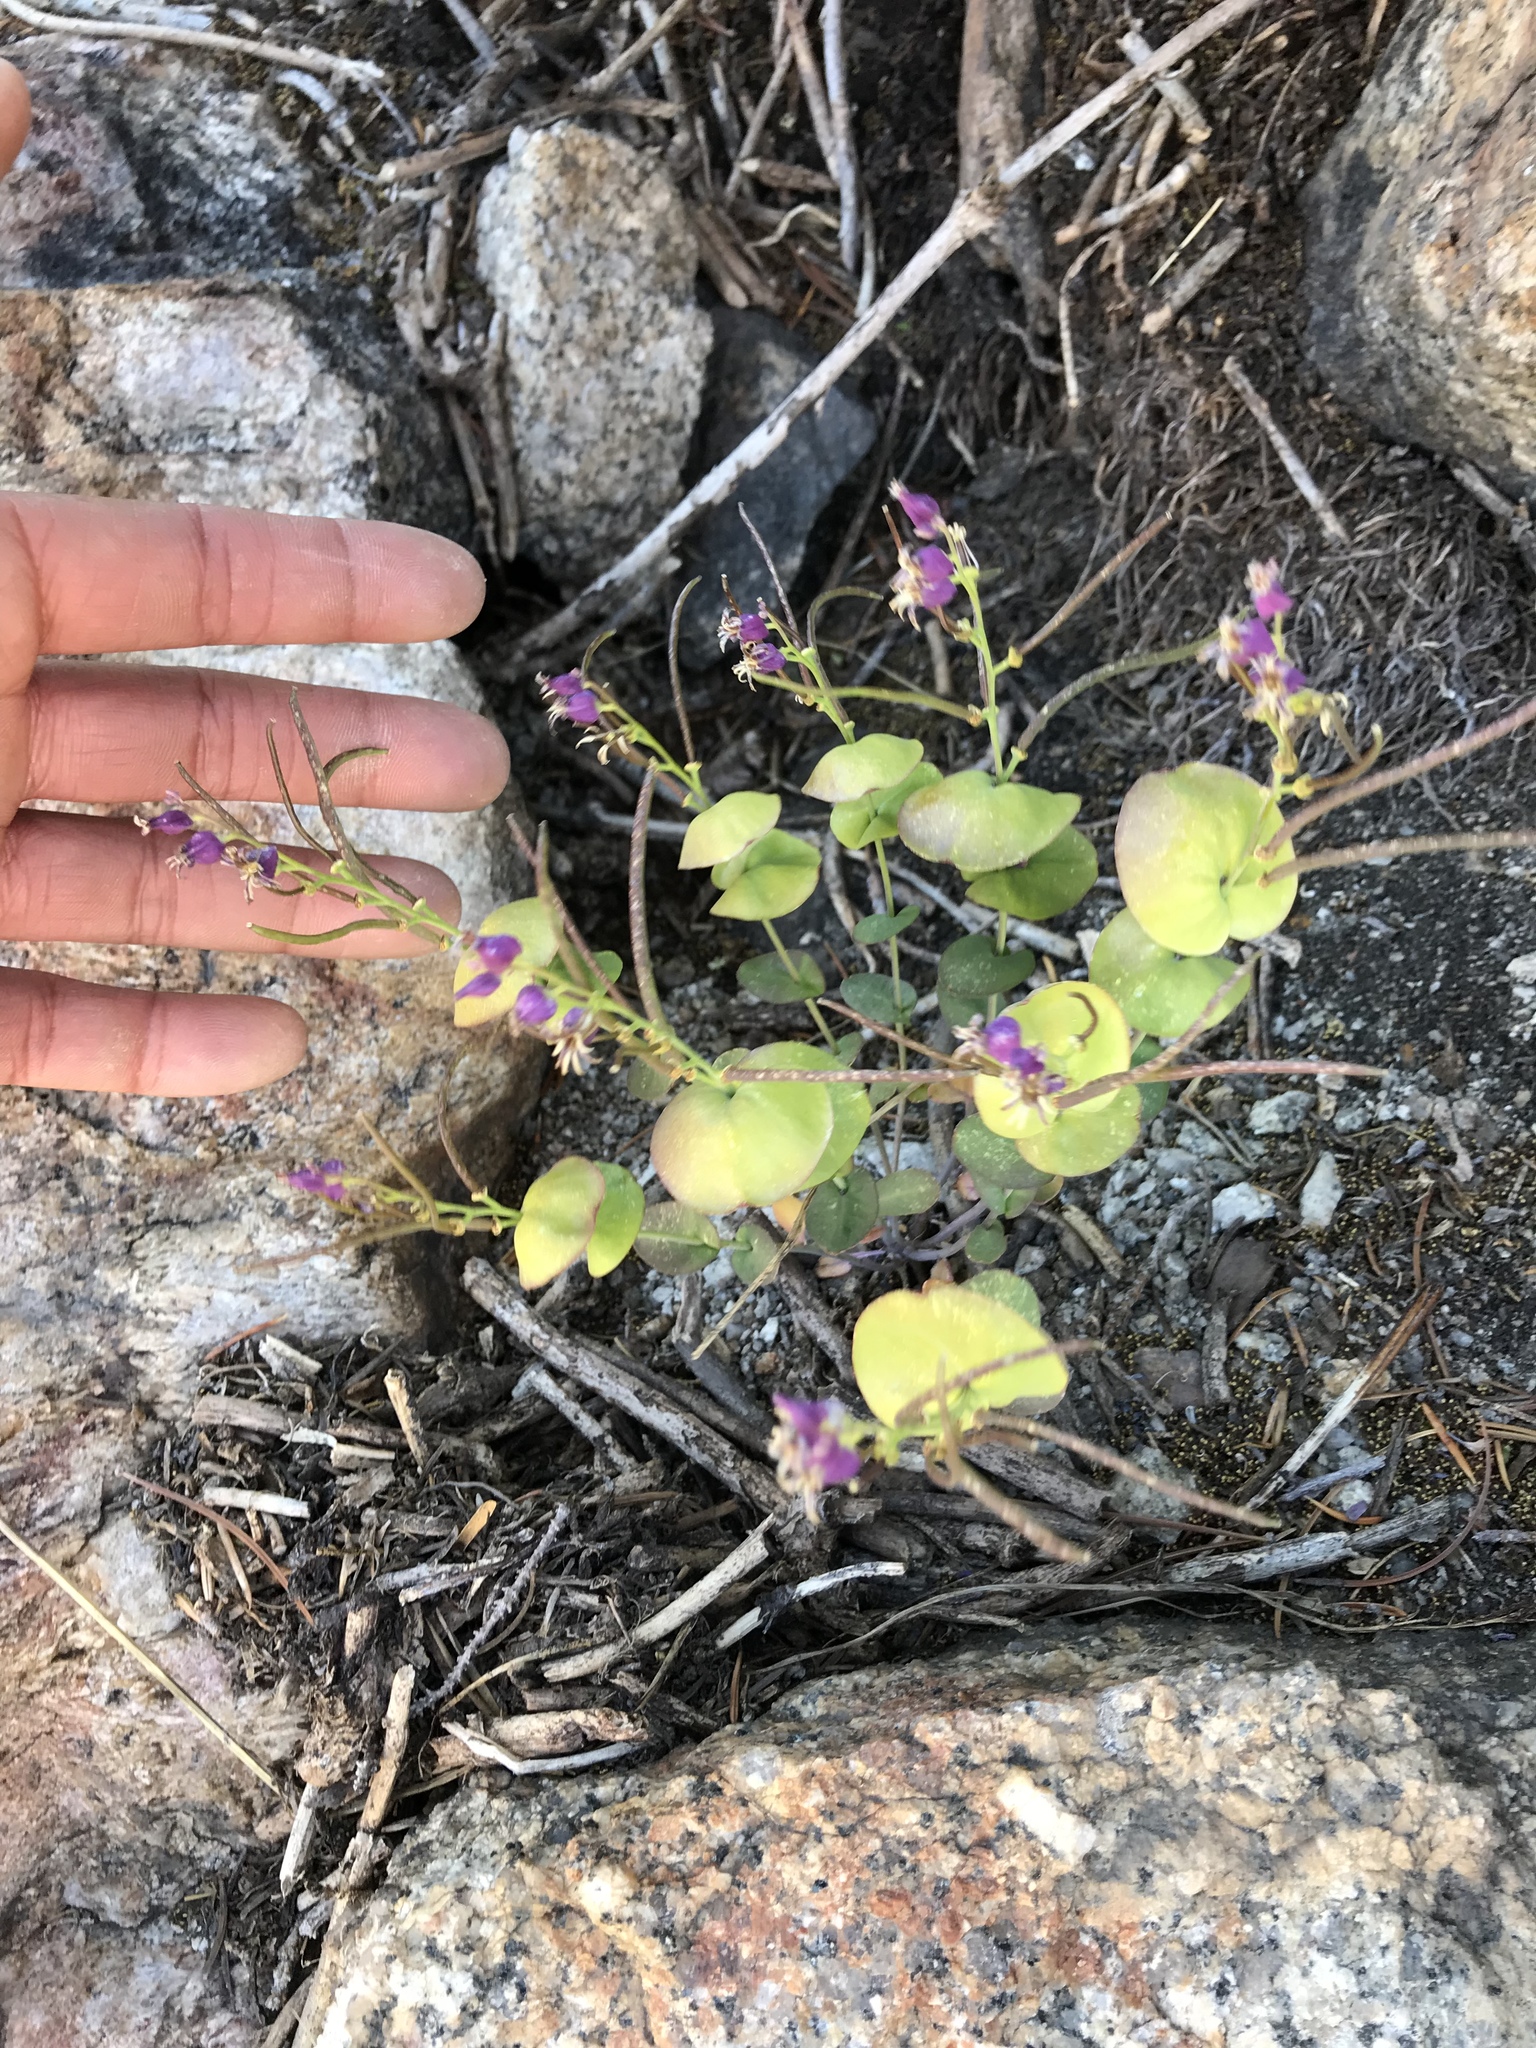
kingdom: Plantae
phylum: Tracheophyta
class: Magnoliopsida
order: Brassicales
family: Brassicaceae
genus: Streptanthus
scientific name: Streptanthus tortuosus
